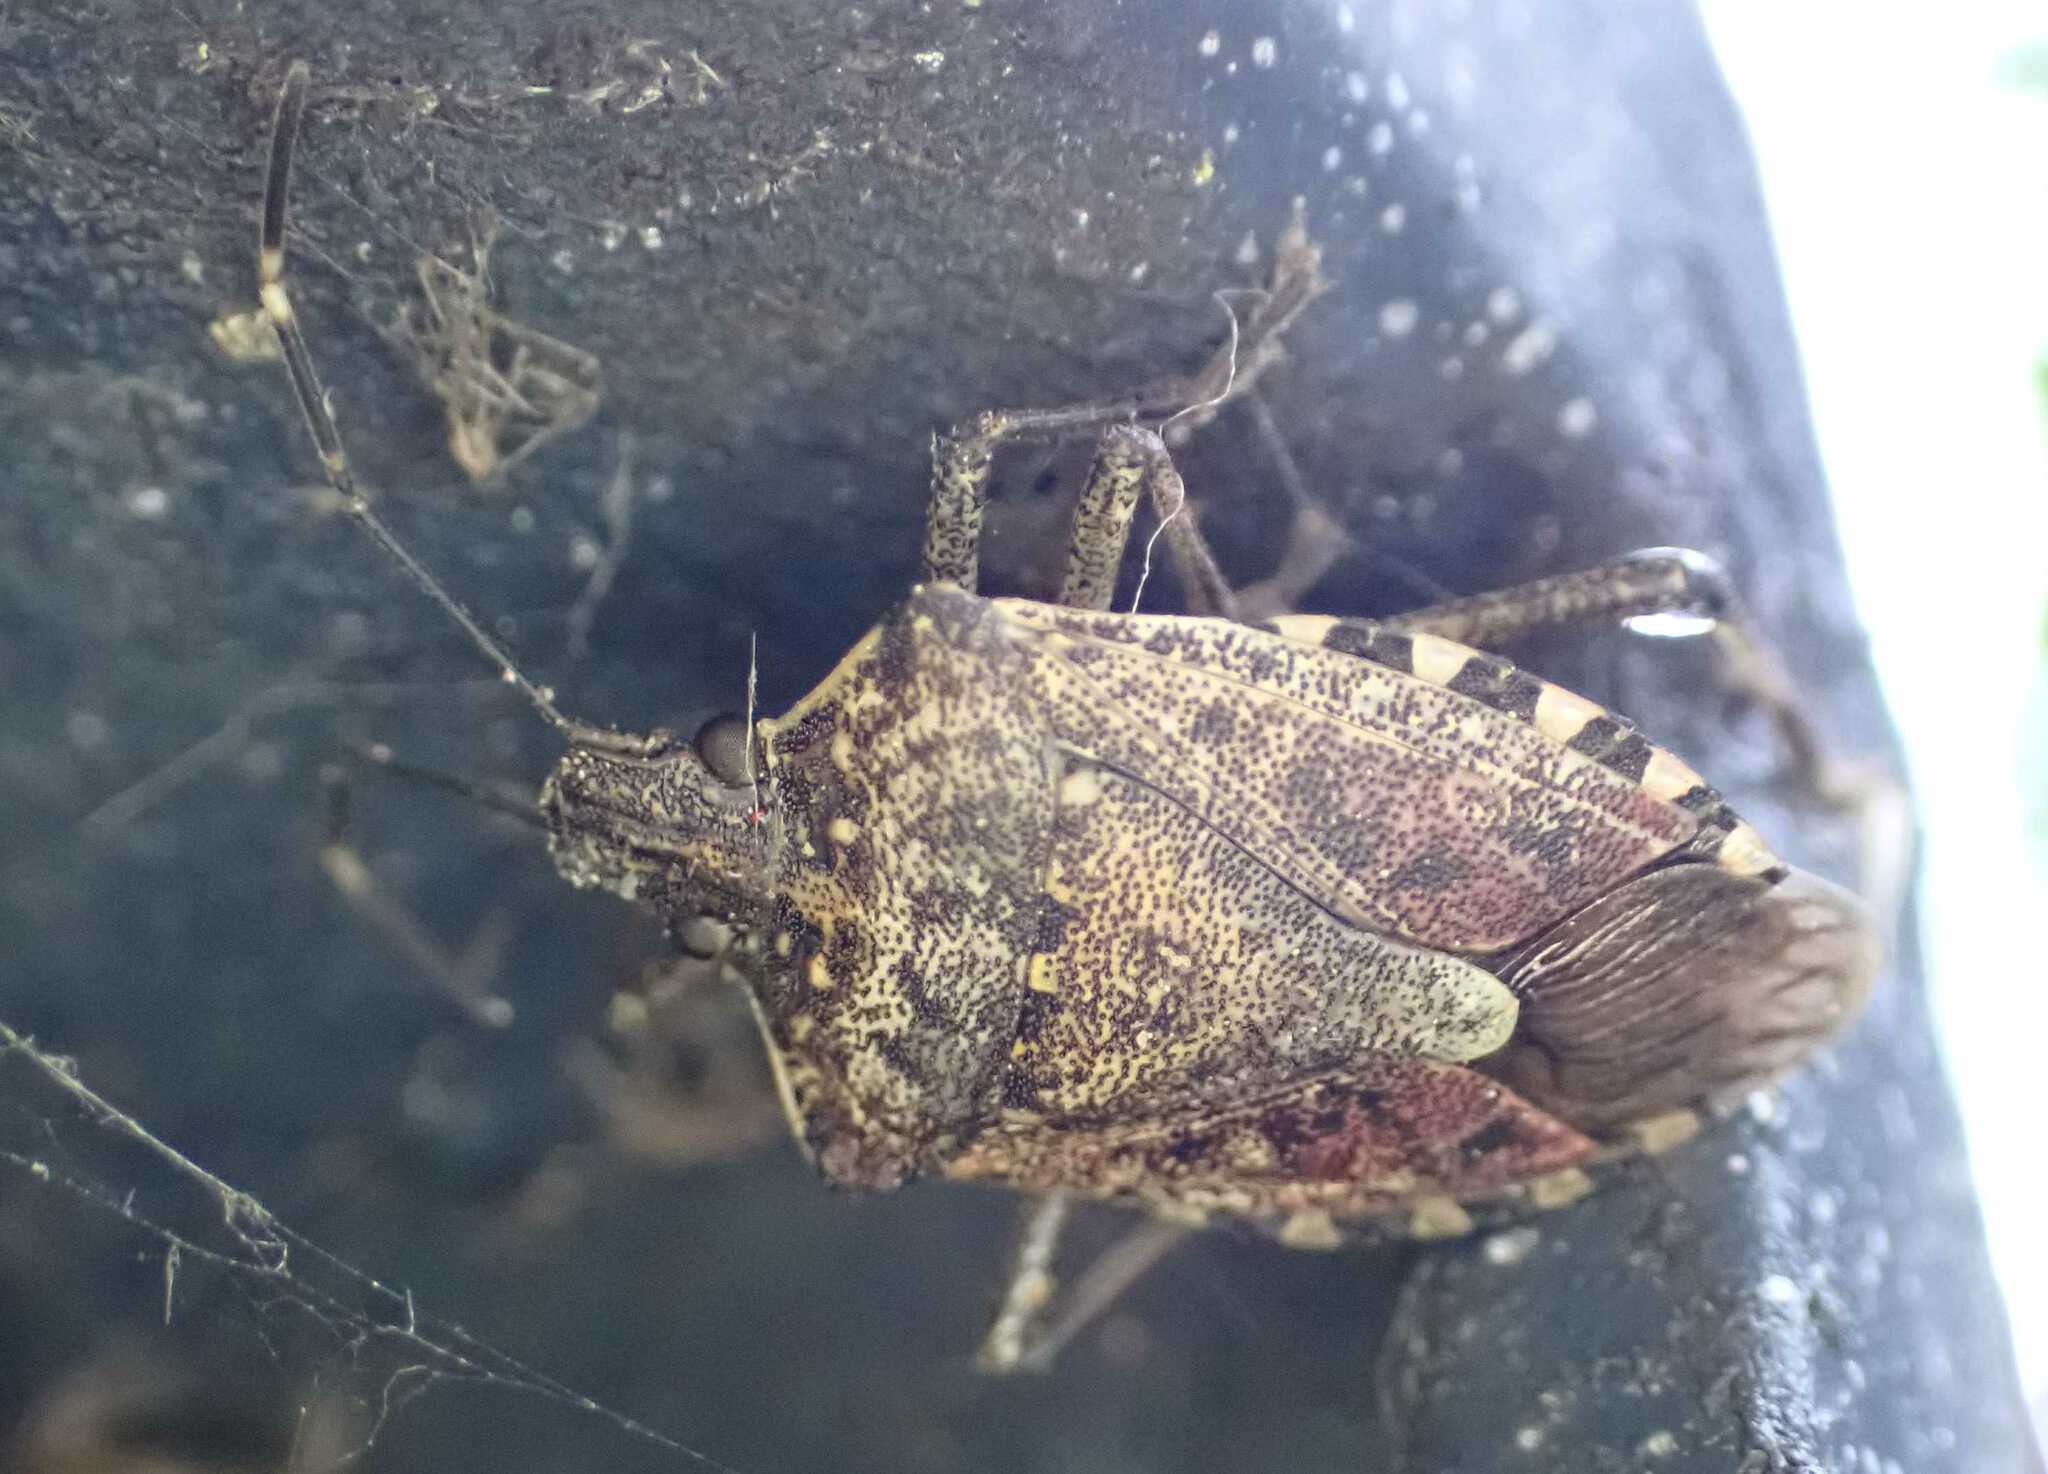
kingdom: Animalia
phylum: Arthropoda
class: Insecta
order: Hemiptera
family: Pentatomidae
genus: Halyomorpha
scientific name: Halyomorpha halys
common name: Brown marmorated stink bug
